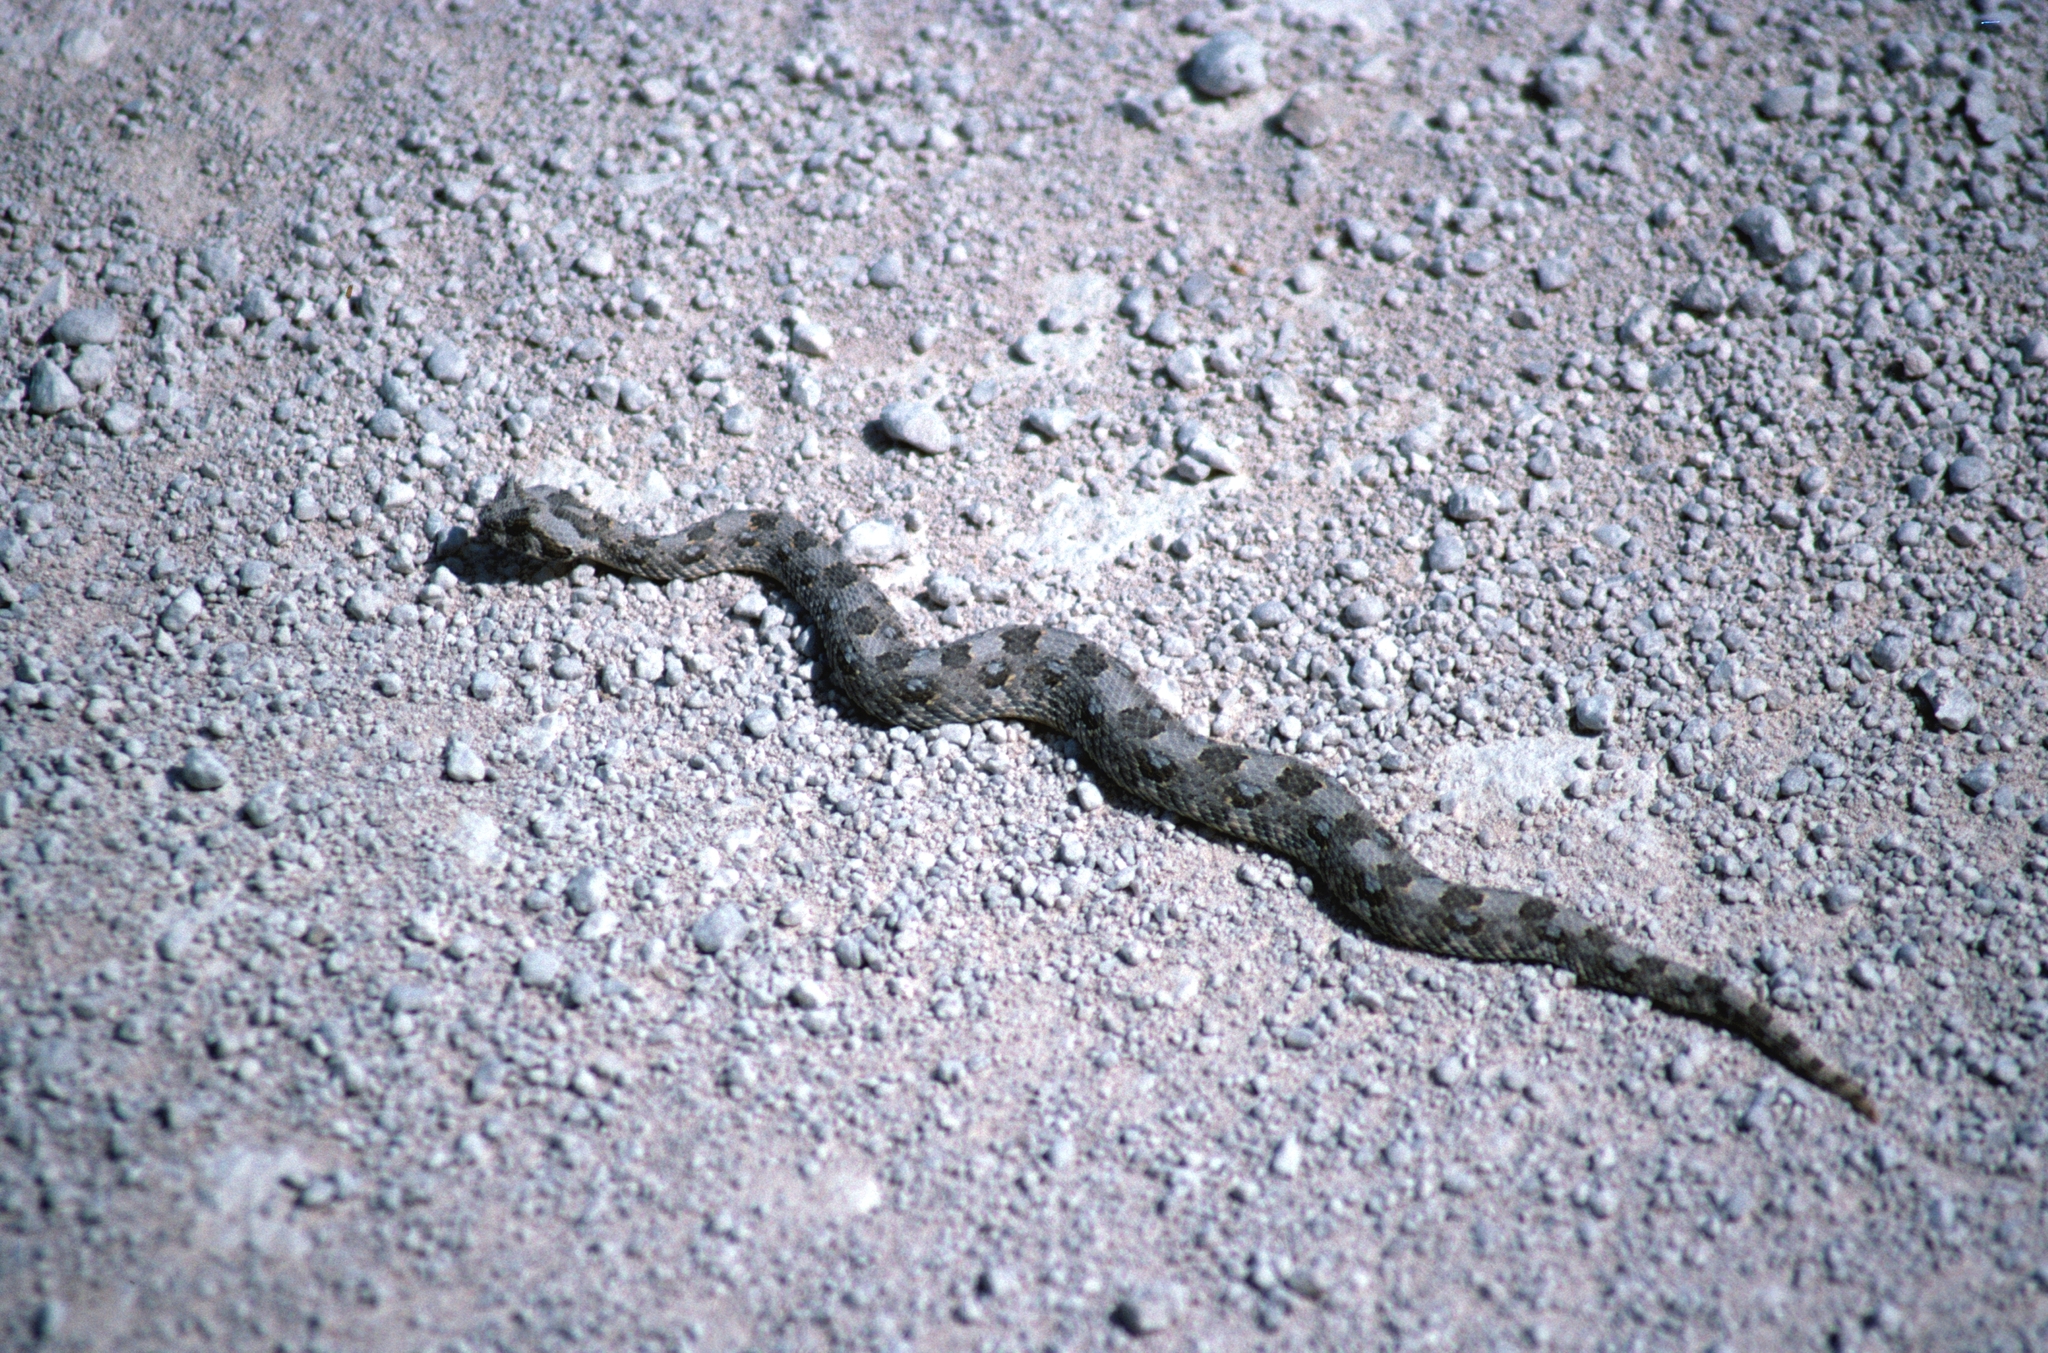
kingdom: Animalia
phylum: Chordata
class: Squamata
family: Viperidae
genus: Bitis
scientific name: Bitis caudalis
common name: Horned adder
